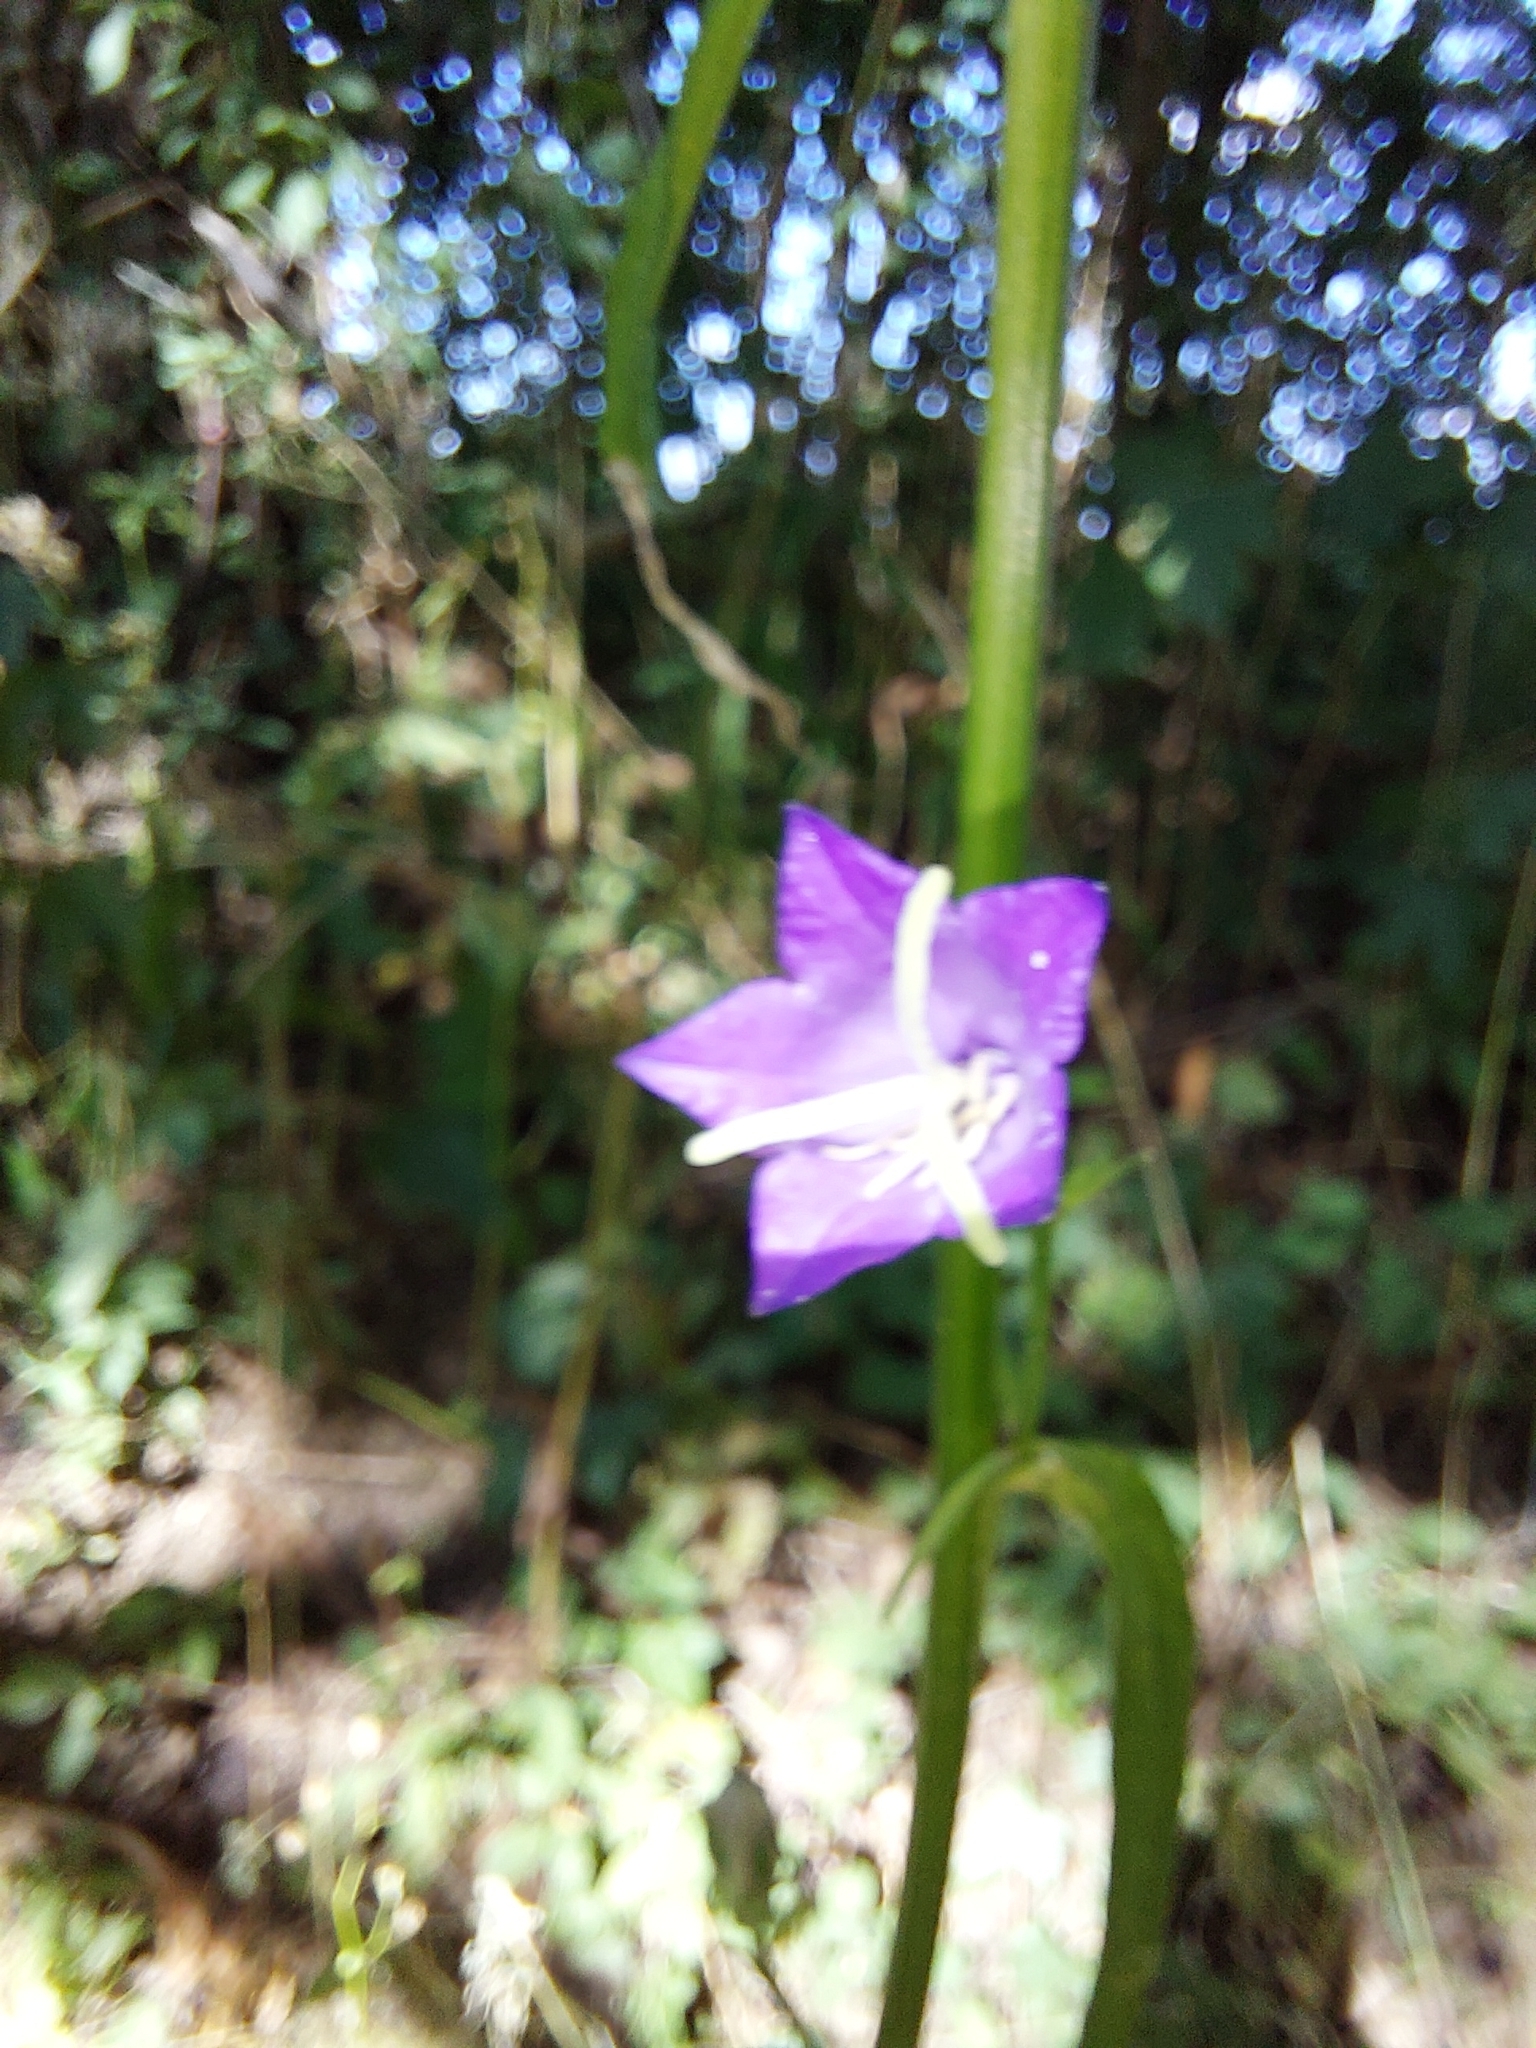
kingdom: Plantae
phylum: Tracheophyta
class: Magnoliopsida
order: Asterales
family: Campanulaceae
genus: Campanula
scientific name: Campanula persicifolia
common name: Peach-leaved bellflower
